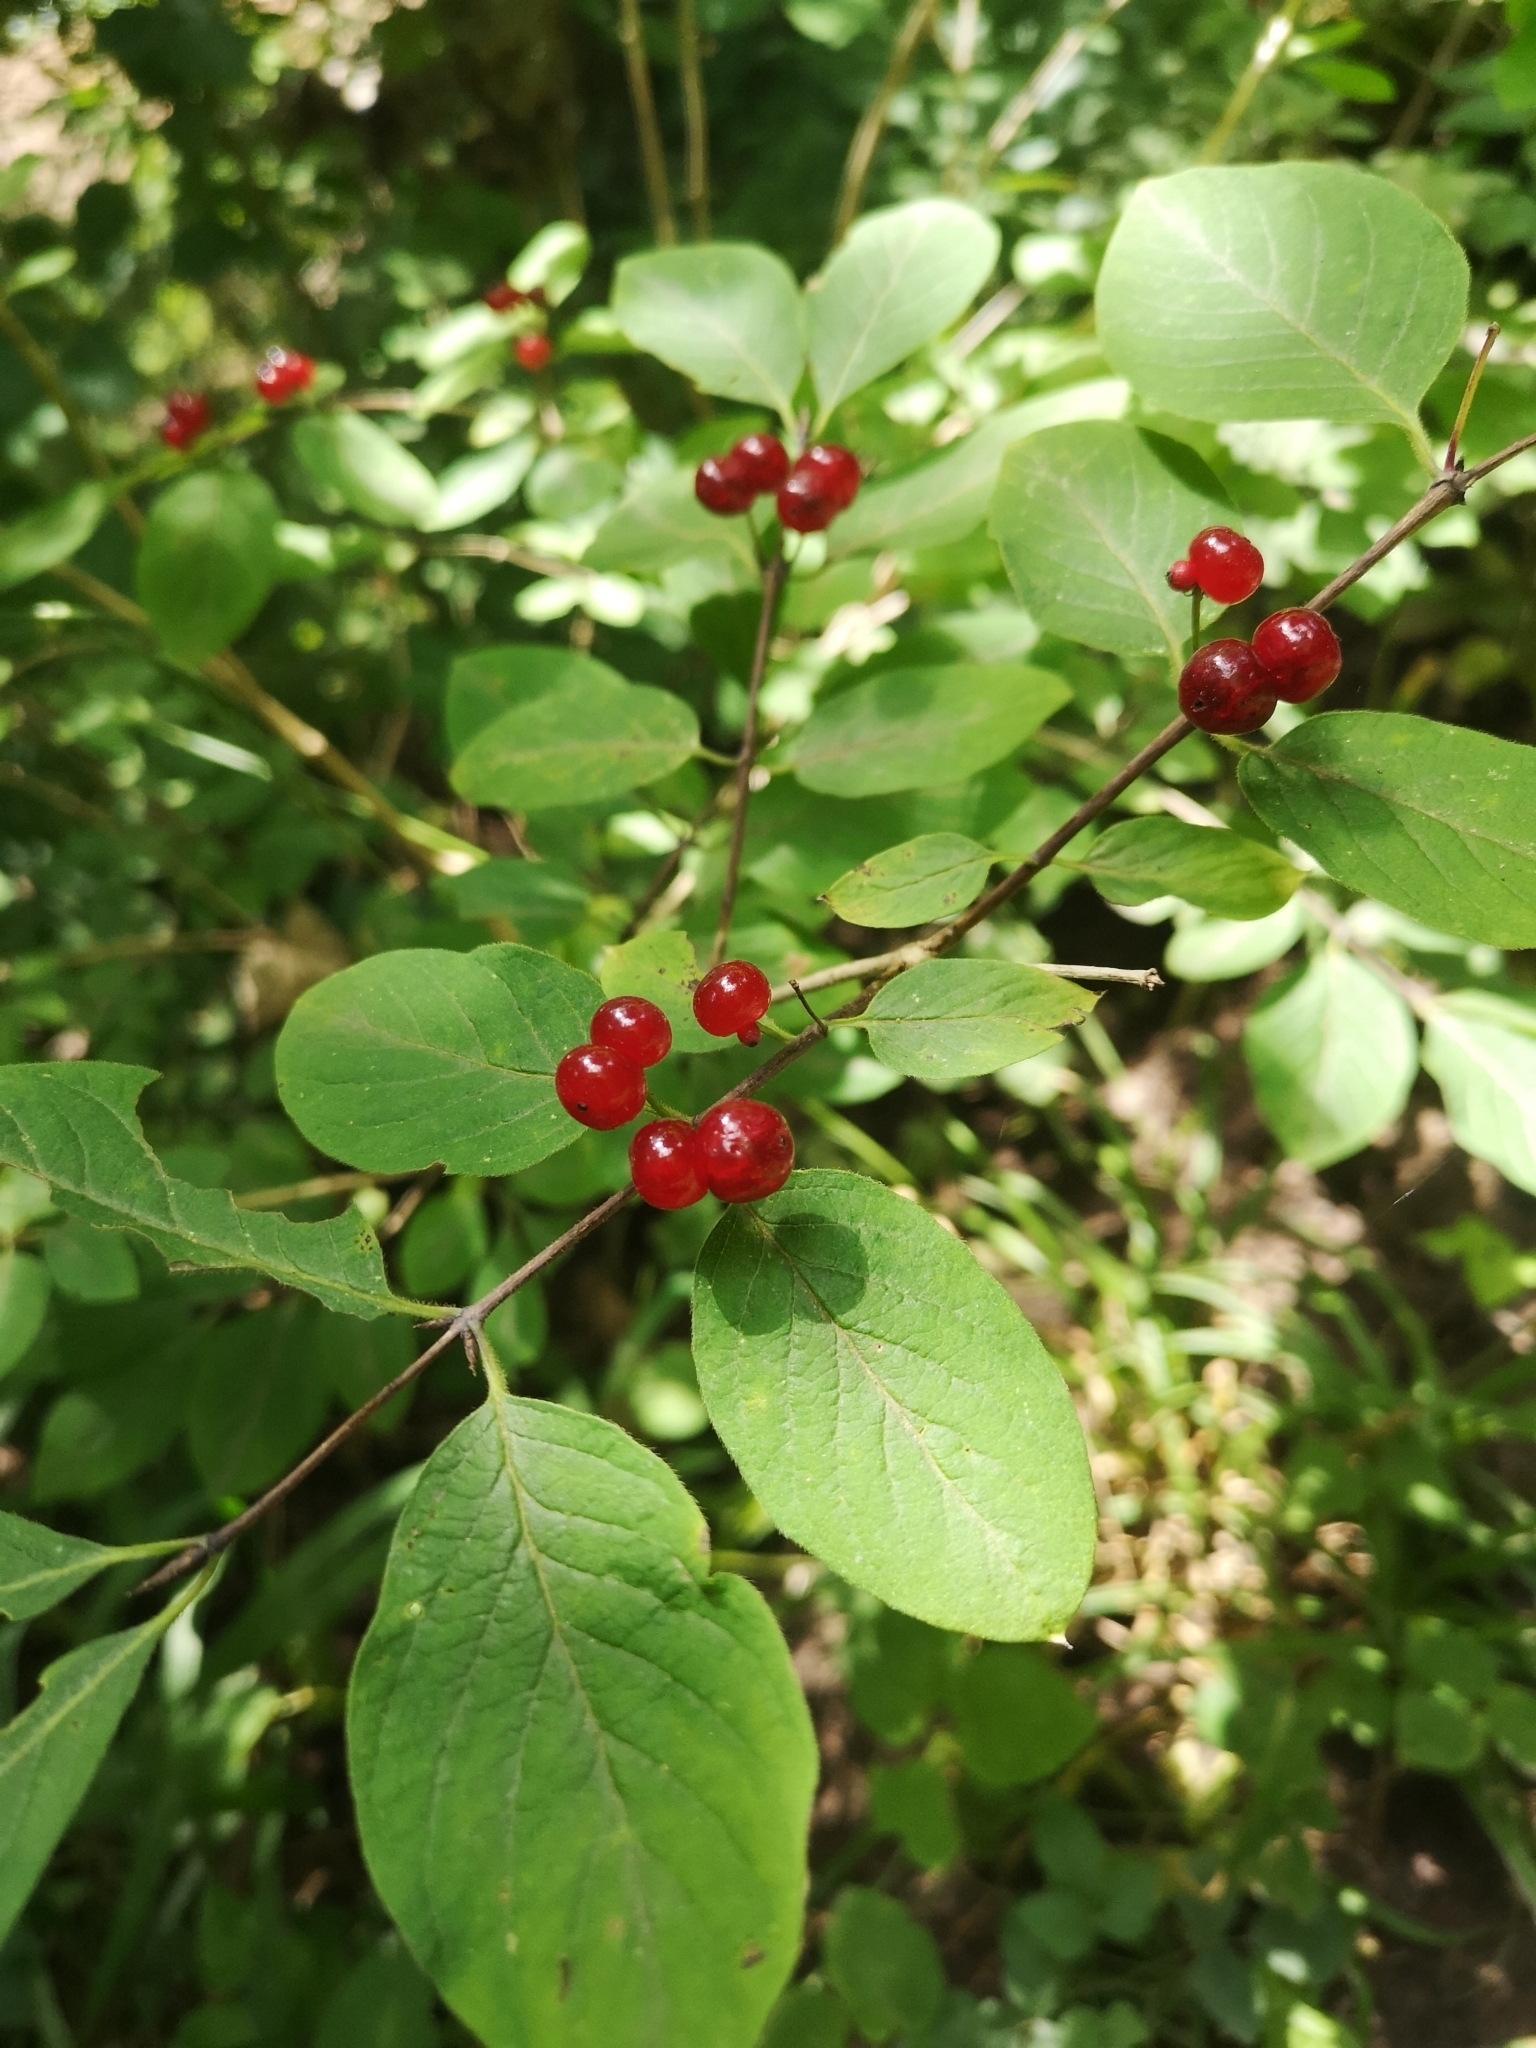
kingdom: Plantae
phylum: Tracheophyta
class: Magnoliopsida
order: Dipsacales
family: Caprifoliaceae
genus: Lonicera
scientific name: Lonicera xylosteum
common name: Fly honeysuckle
